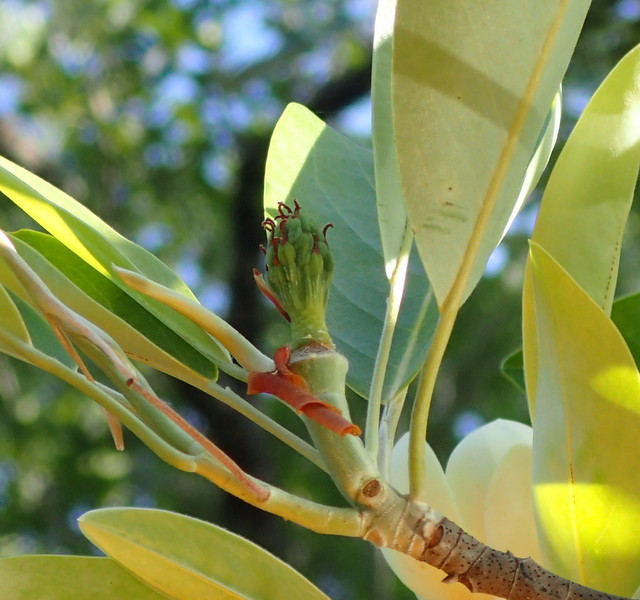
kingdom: Plantae
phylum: Tracheophyta
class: Magnoliopsida
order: Magnoliales
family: Magnoliaceae
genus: Magnolia
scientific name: Magnolia virginiana
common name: Swamp bay
